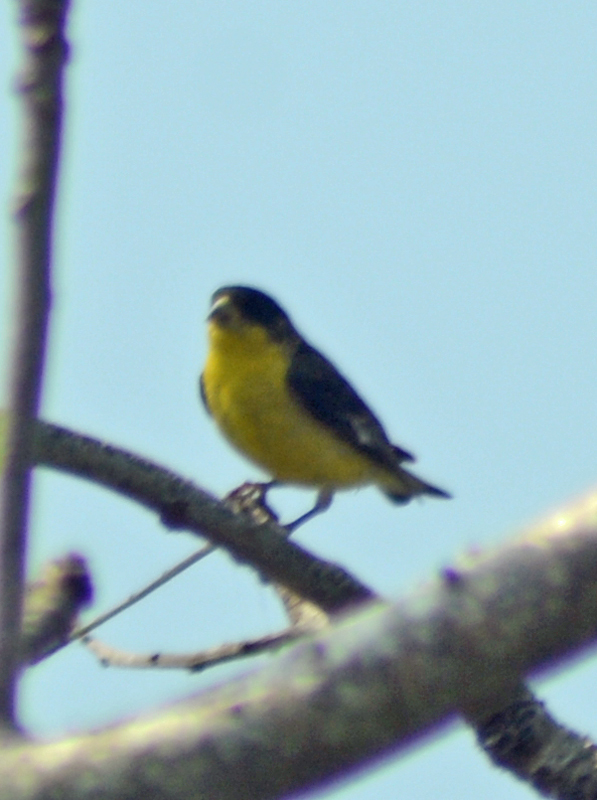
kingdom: Animalia
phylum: Chordata
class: Aves
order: Passeriformes
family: Fringillidae
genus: Spinus
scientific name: Spinus psaltria
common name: Lesser goldfinch
